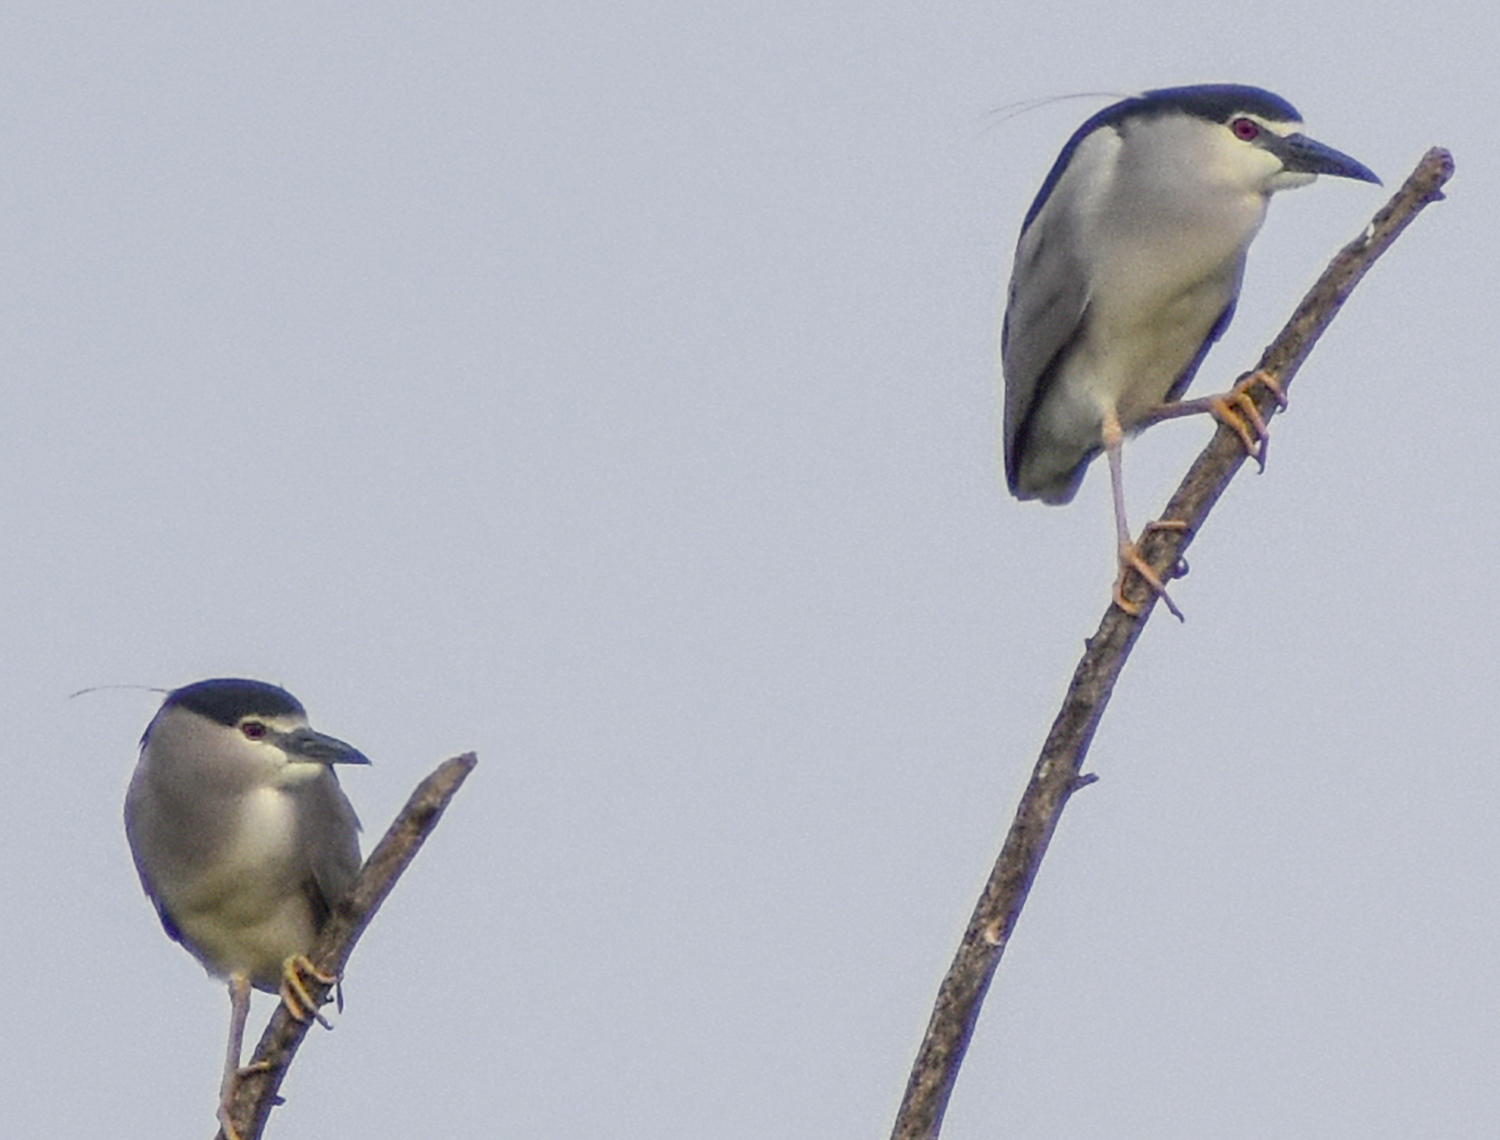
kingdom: Animalia
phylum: Chordata
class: Aves
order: Pelecaniformes
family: Ardeidae
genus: Nycticorax
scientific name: Nycticorax nycticorax
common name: Black-crowned night heron
